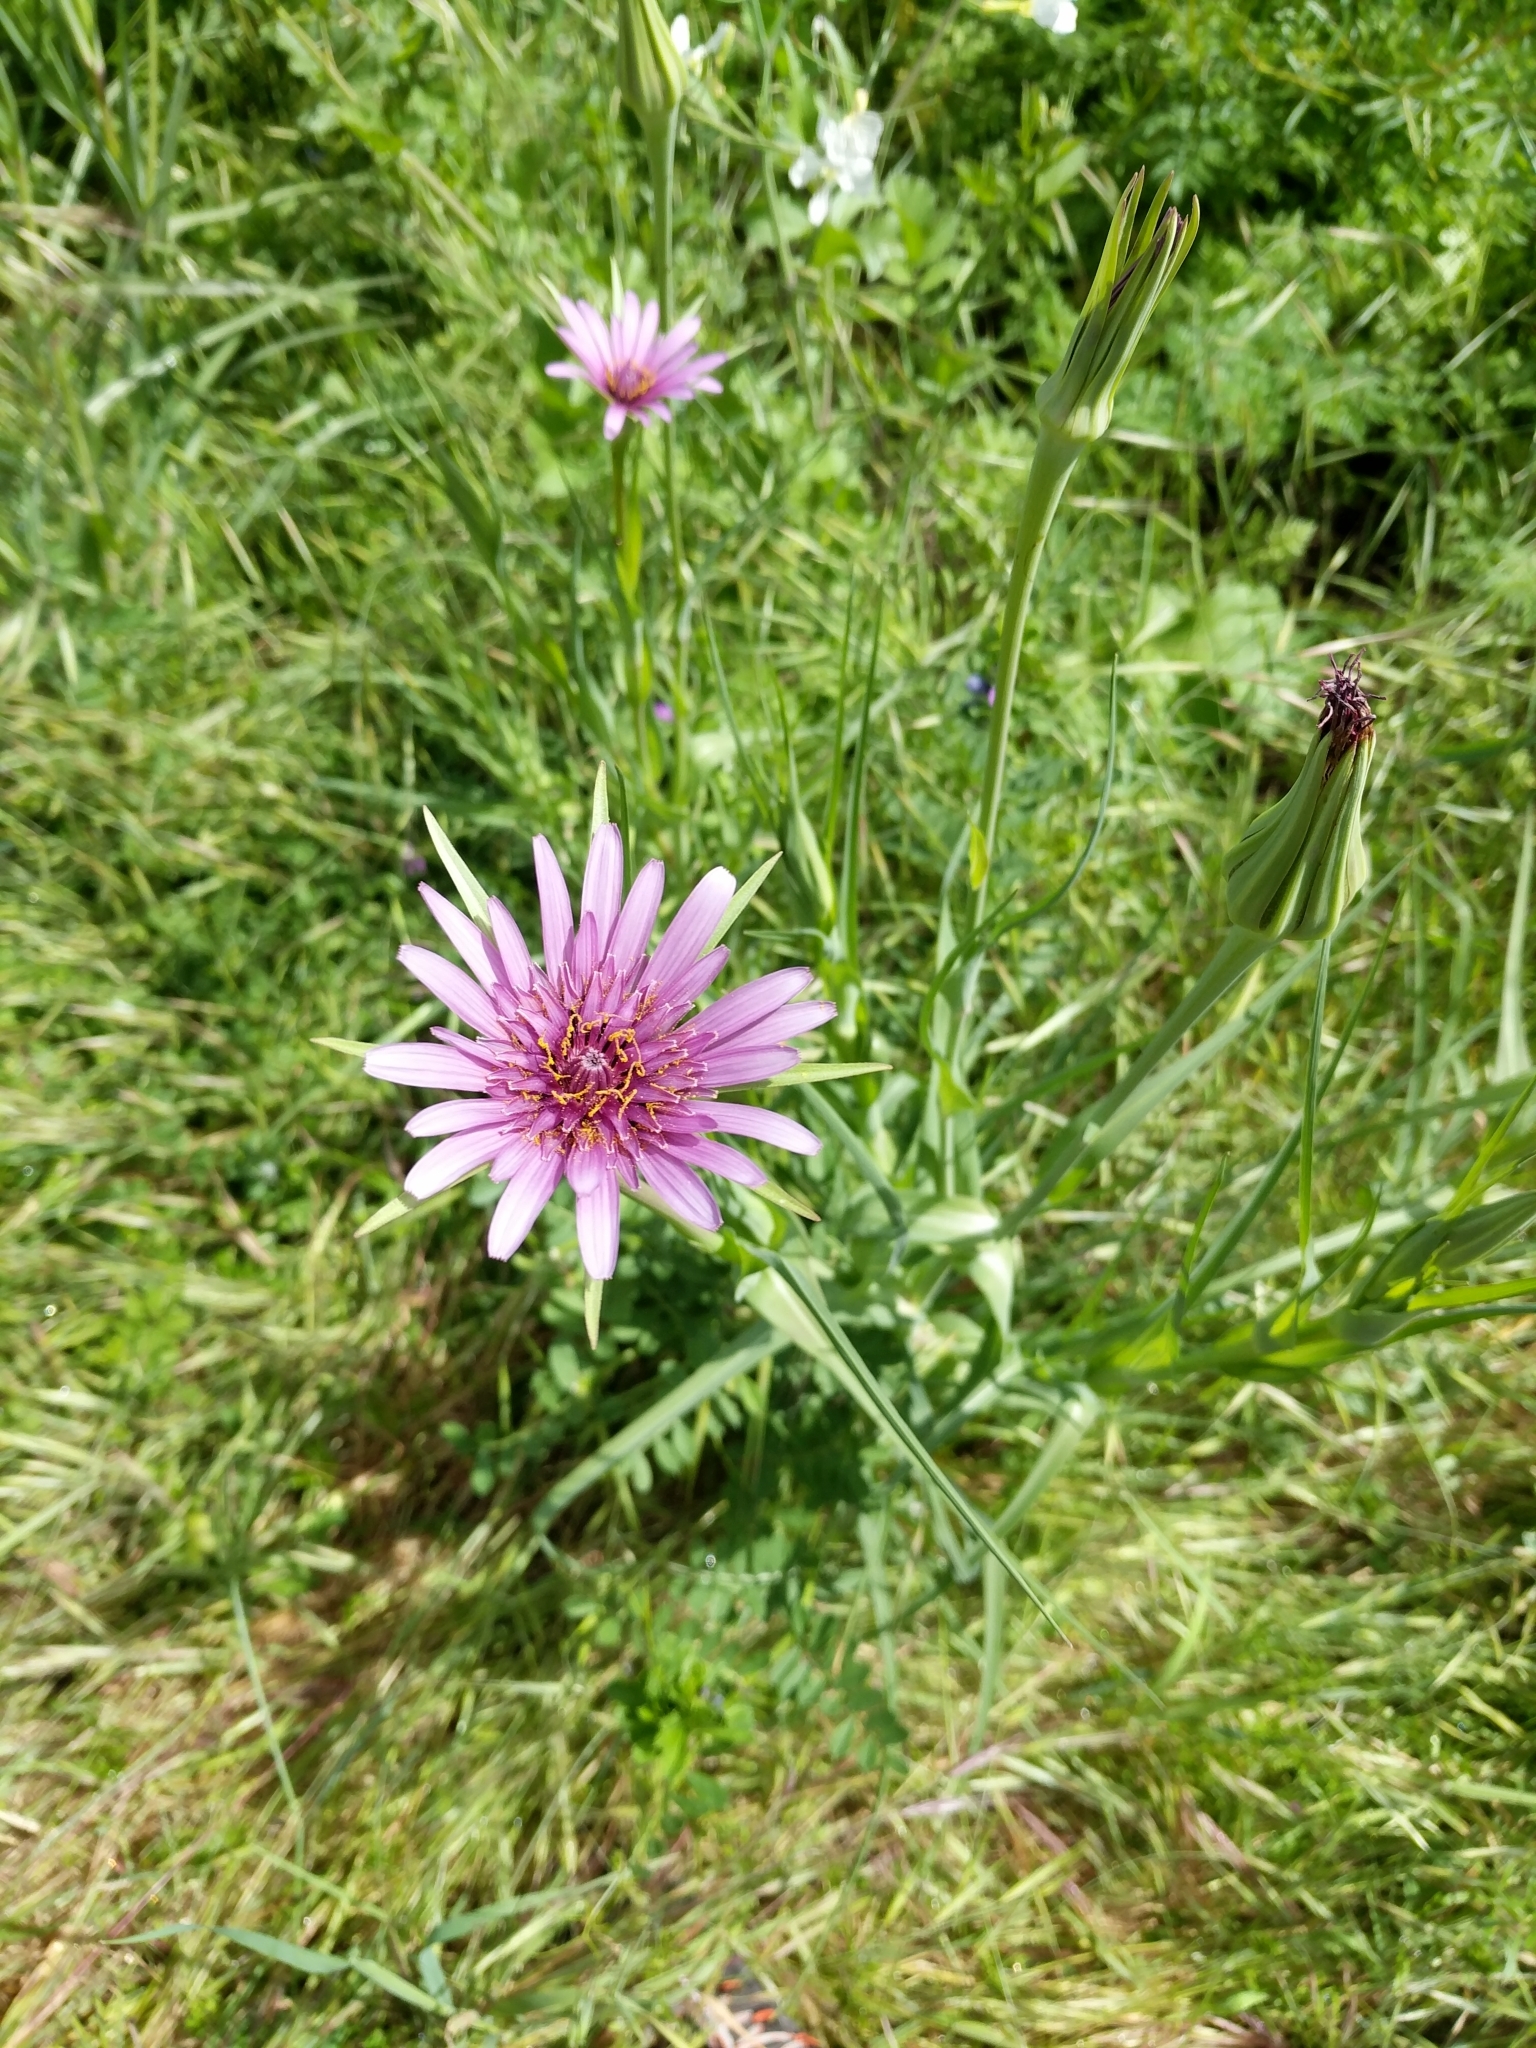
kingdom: Plantae
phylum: Tracheophyta
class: Magnoliopsida
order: Asterales
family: Asteraceae
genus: Tragopogon
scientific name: Tragopogon porrifolius
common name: Salsify
